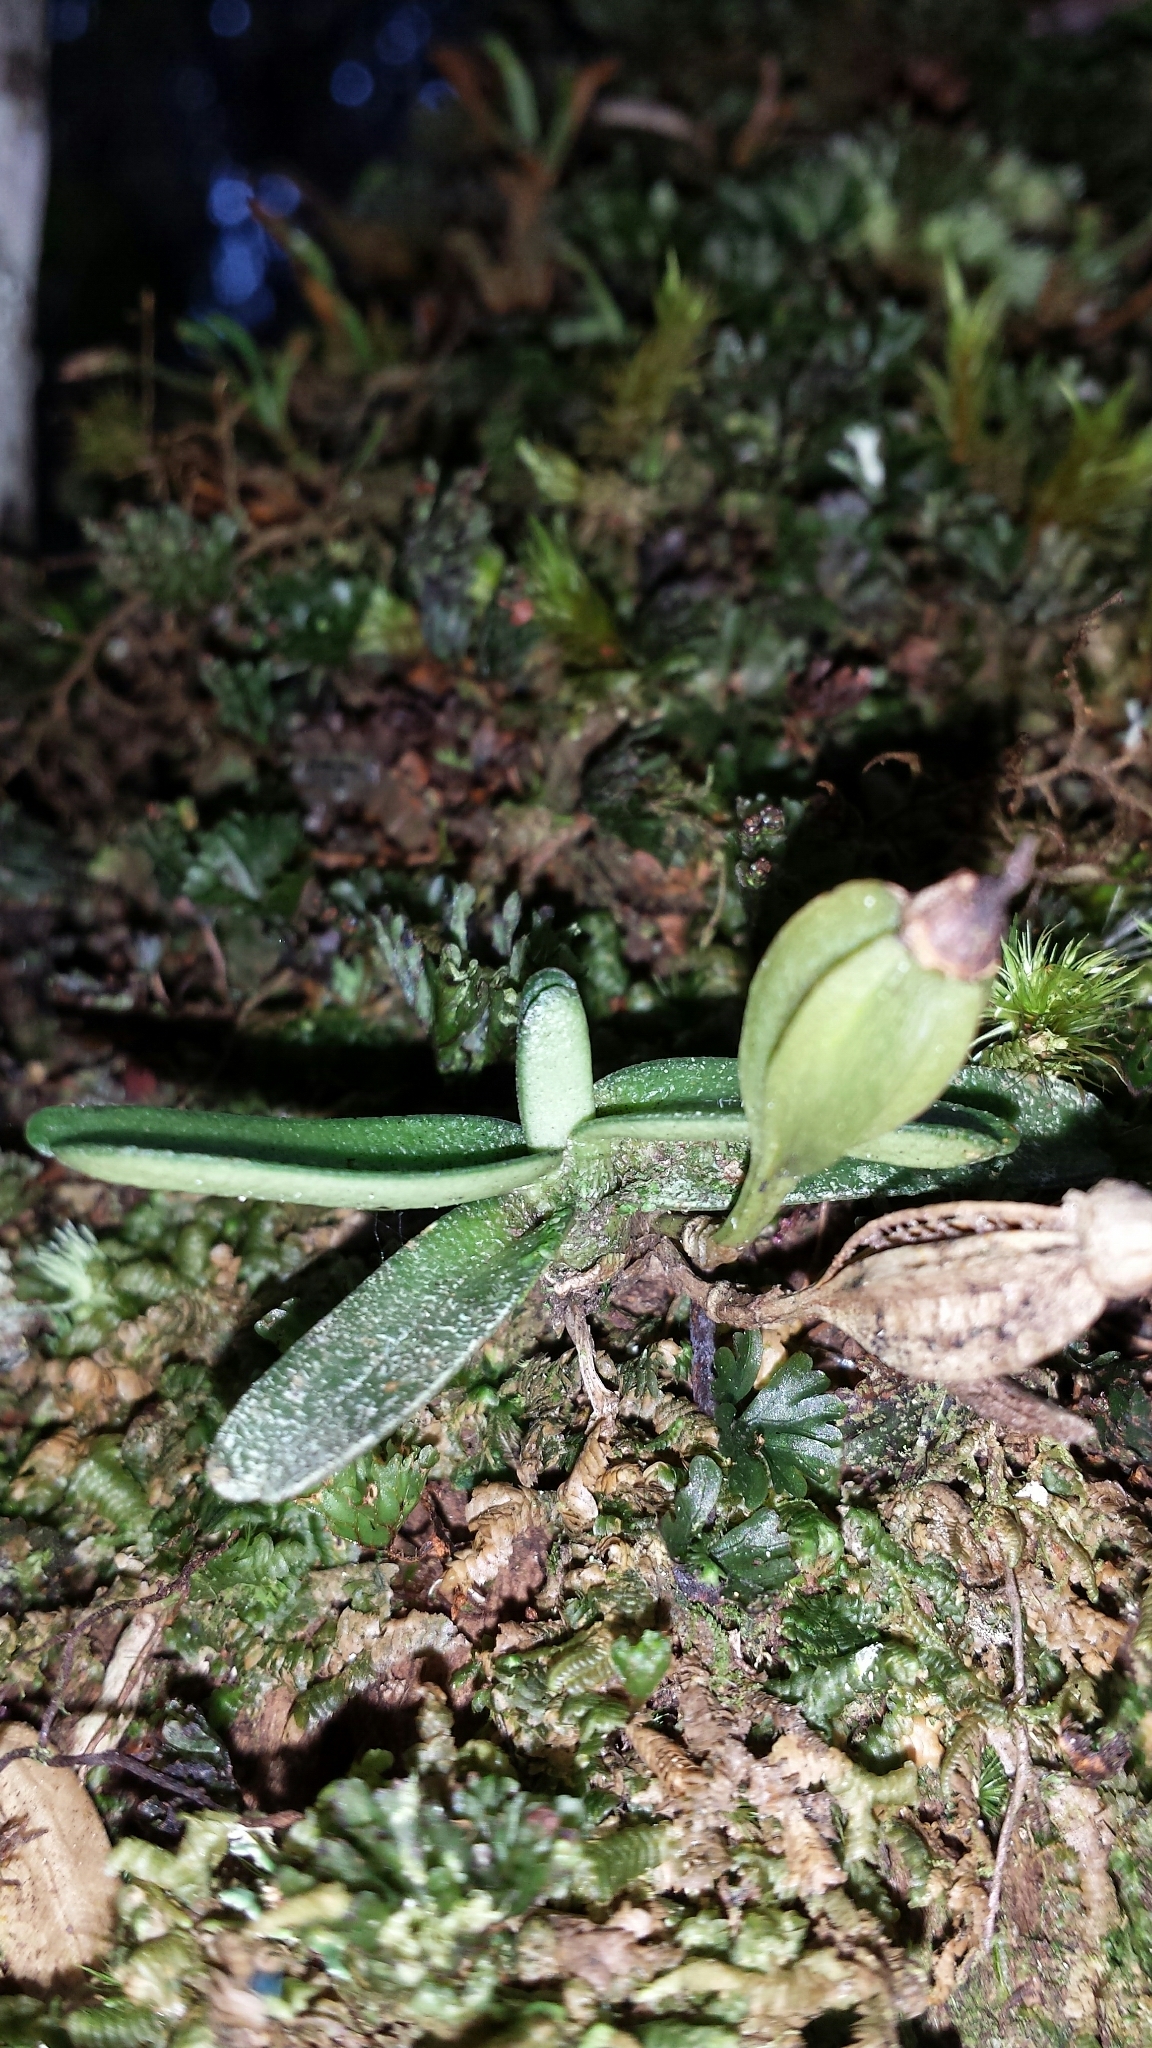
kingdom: Plantae
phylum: Tracheophyta
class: Liliopsida
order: Asparagales
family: Orchidaceae
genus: Angraecum
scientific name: Angraecum breve
